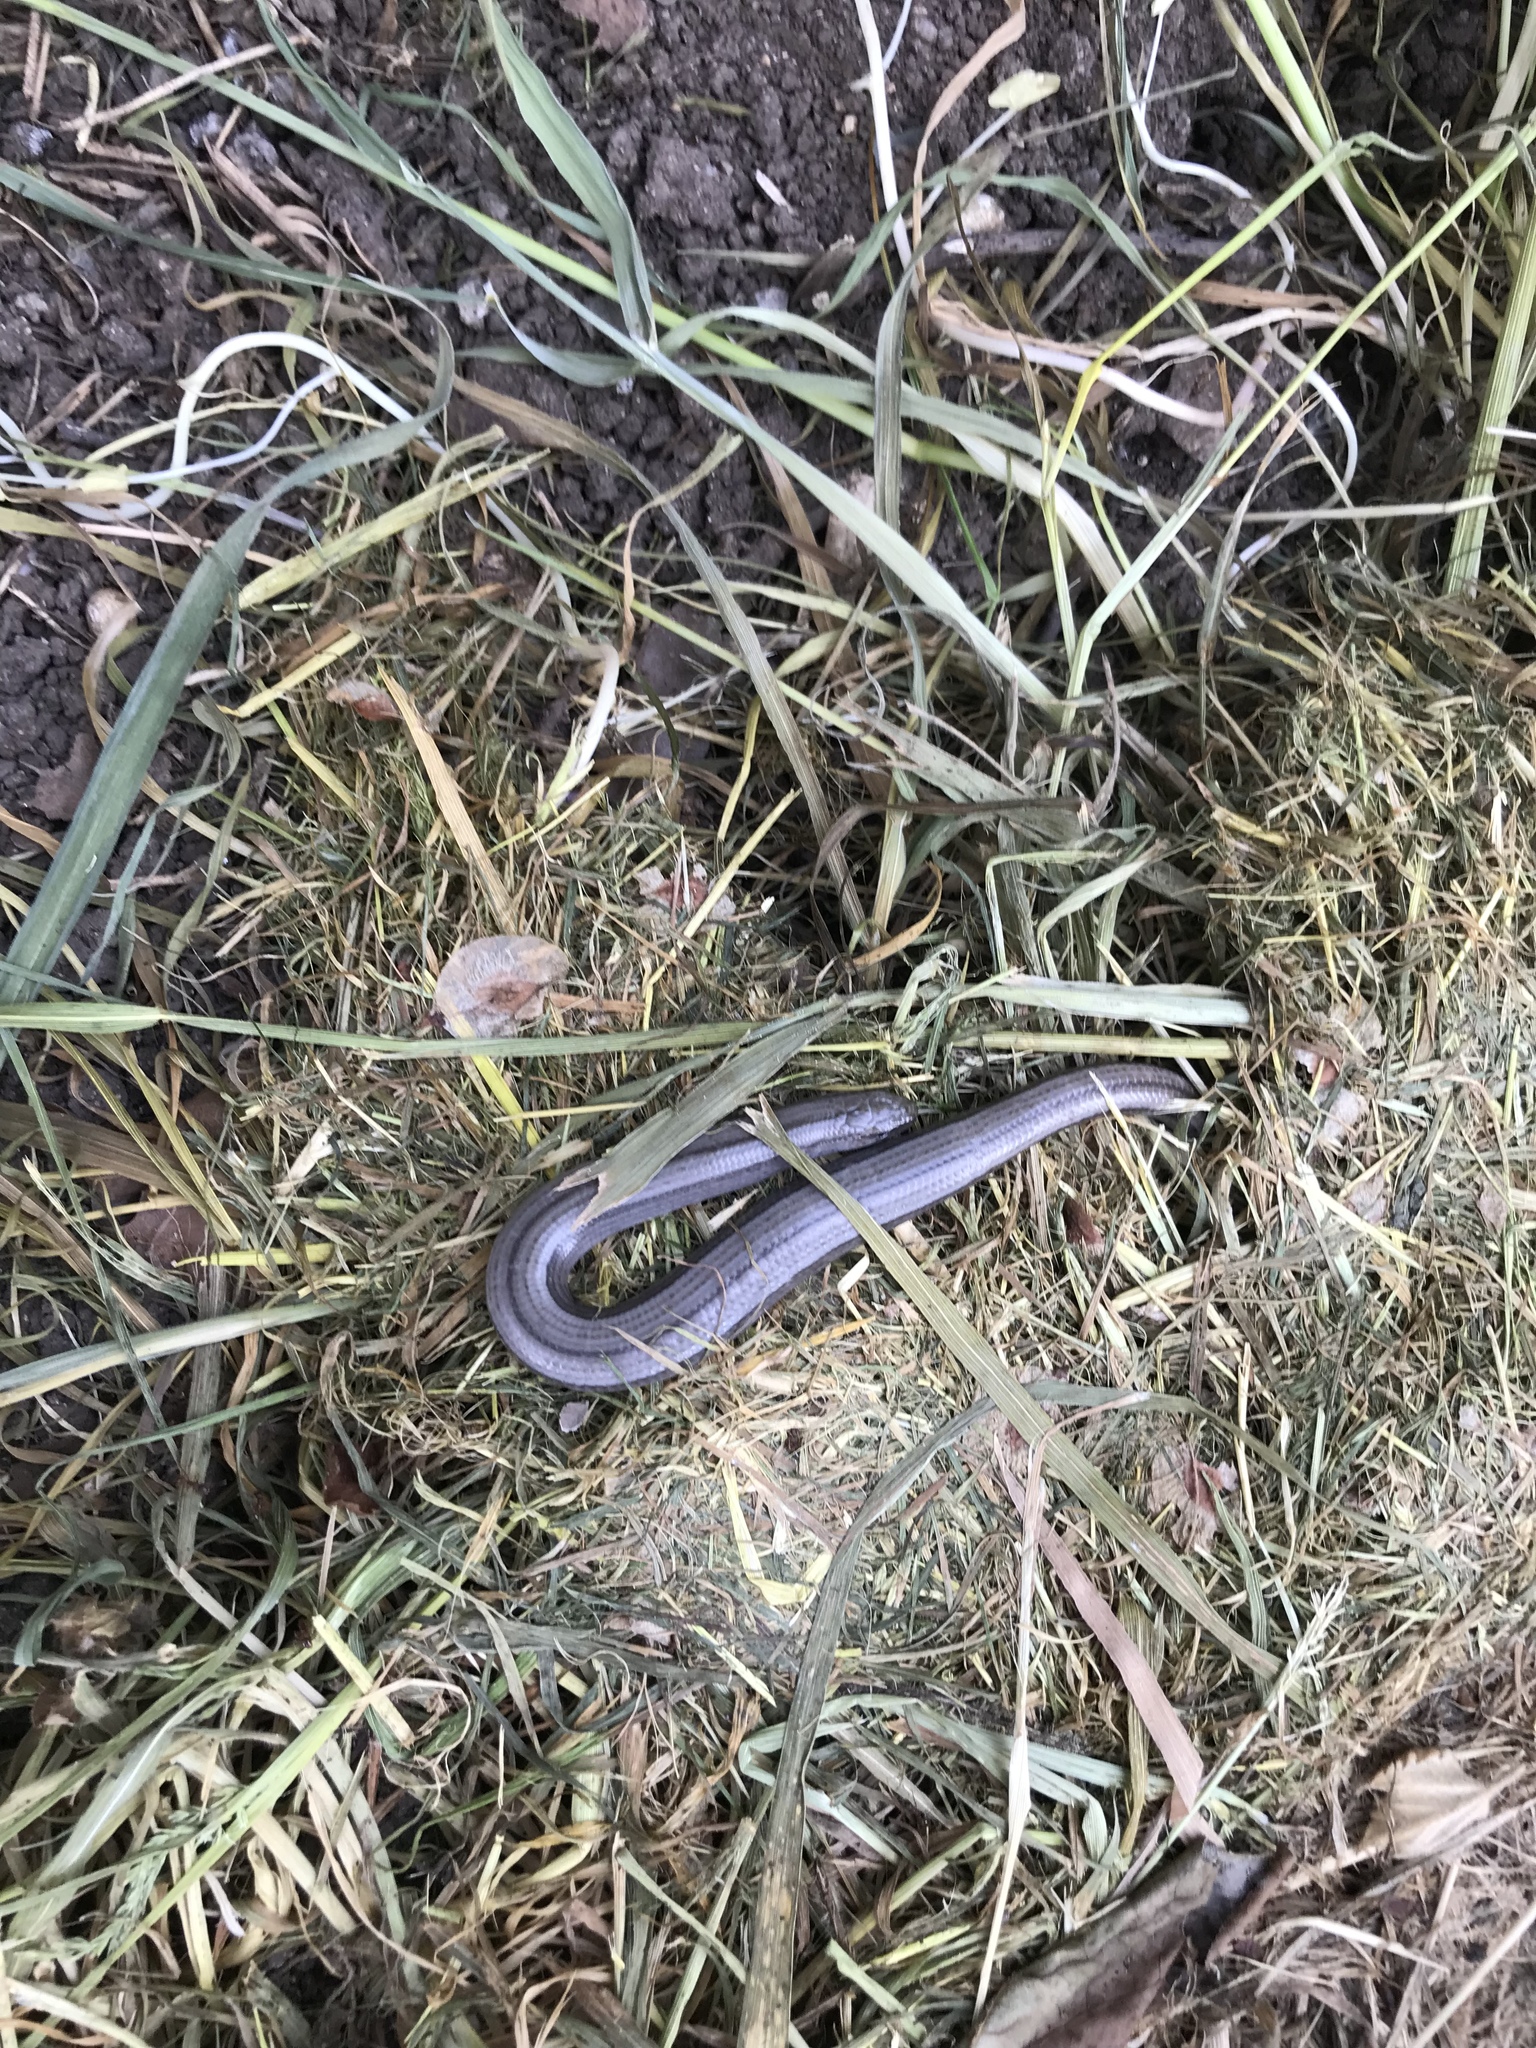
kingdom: Animalia
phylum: Chordata
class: Squamata
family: Anguidae
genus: Anguis
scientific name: Anguis fragilis
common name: Slow worm
